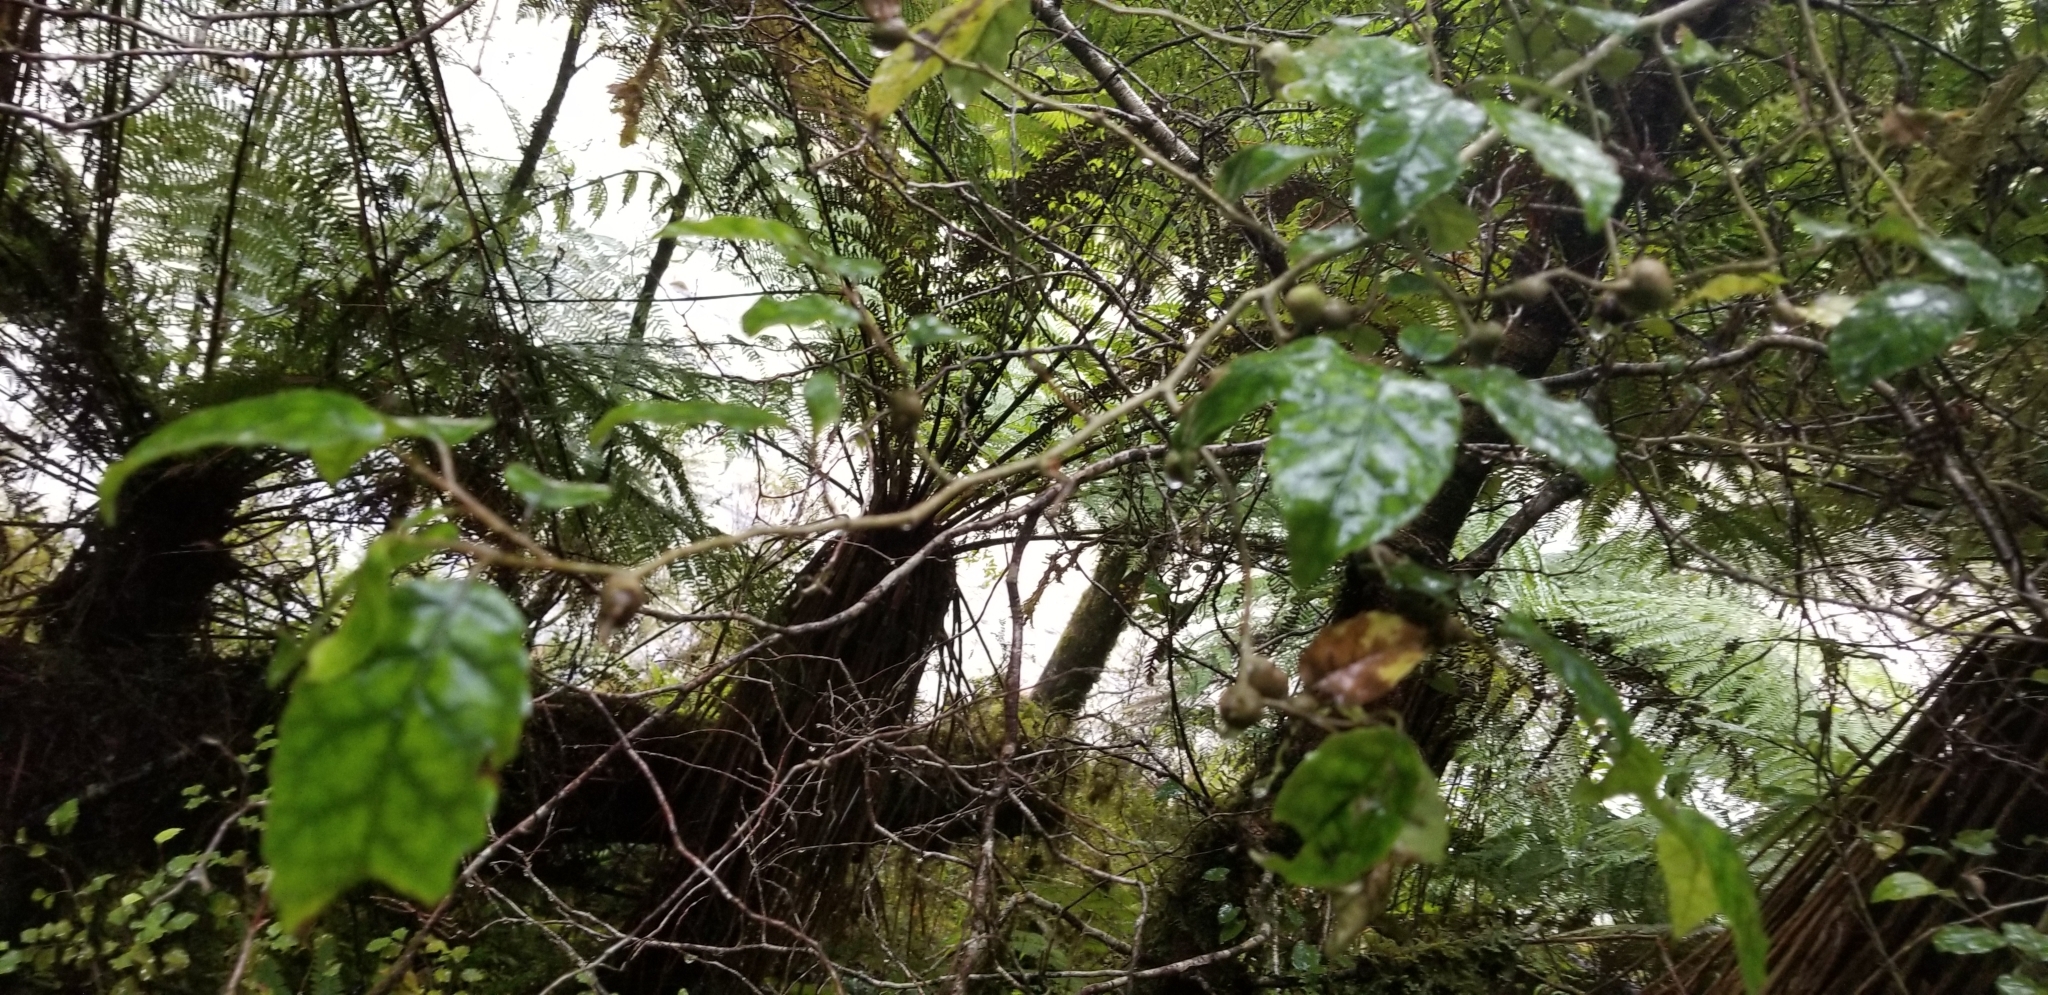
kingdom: Plantae
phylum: Tracheophyta
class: Magnoliopsida
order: Asterales
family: Rousseaceae
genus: Carpodetus
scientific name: Carpodetus serratus
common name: White mapau
